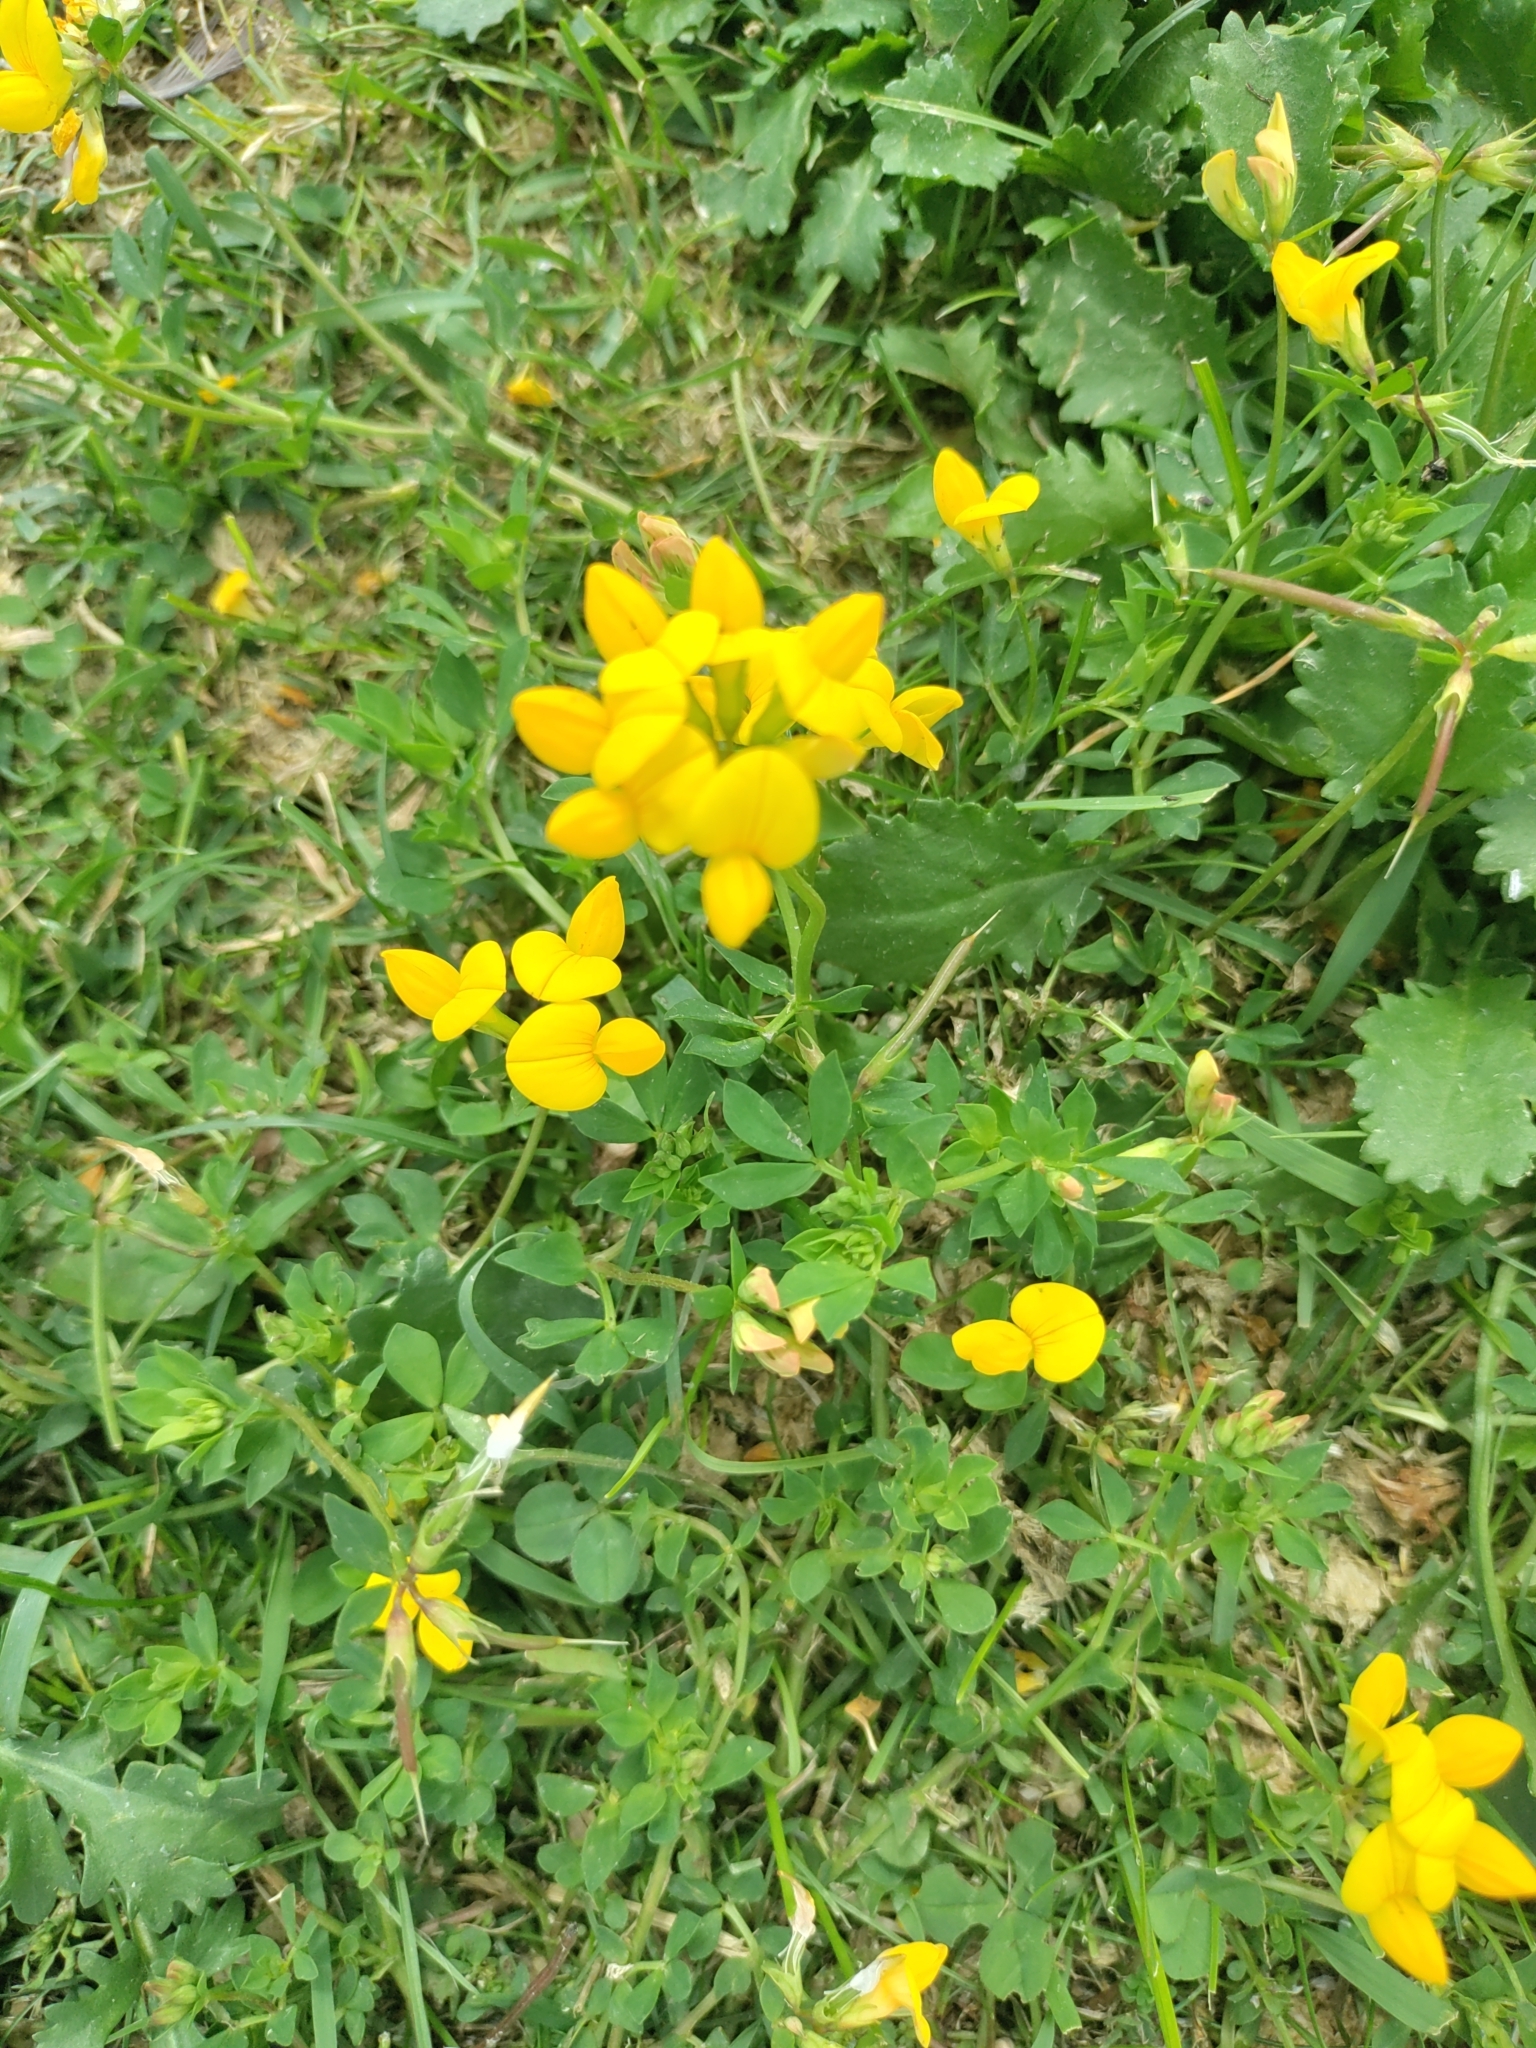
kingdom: Plantae
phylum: Tracheophyta
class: Magnoliopsida
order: Fabales
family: Fabaceae
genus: Lotus
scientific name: Lotus corniculatus
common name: Common bird's-foot-trefoil
